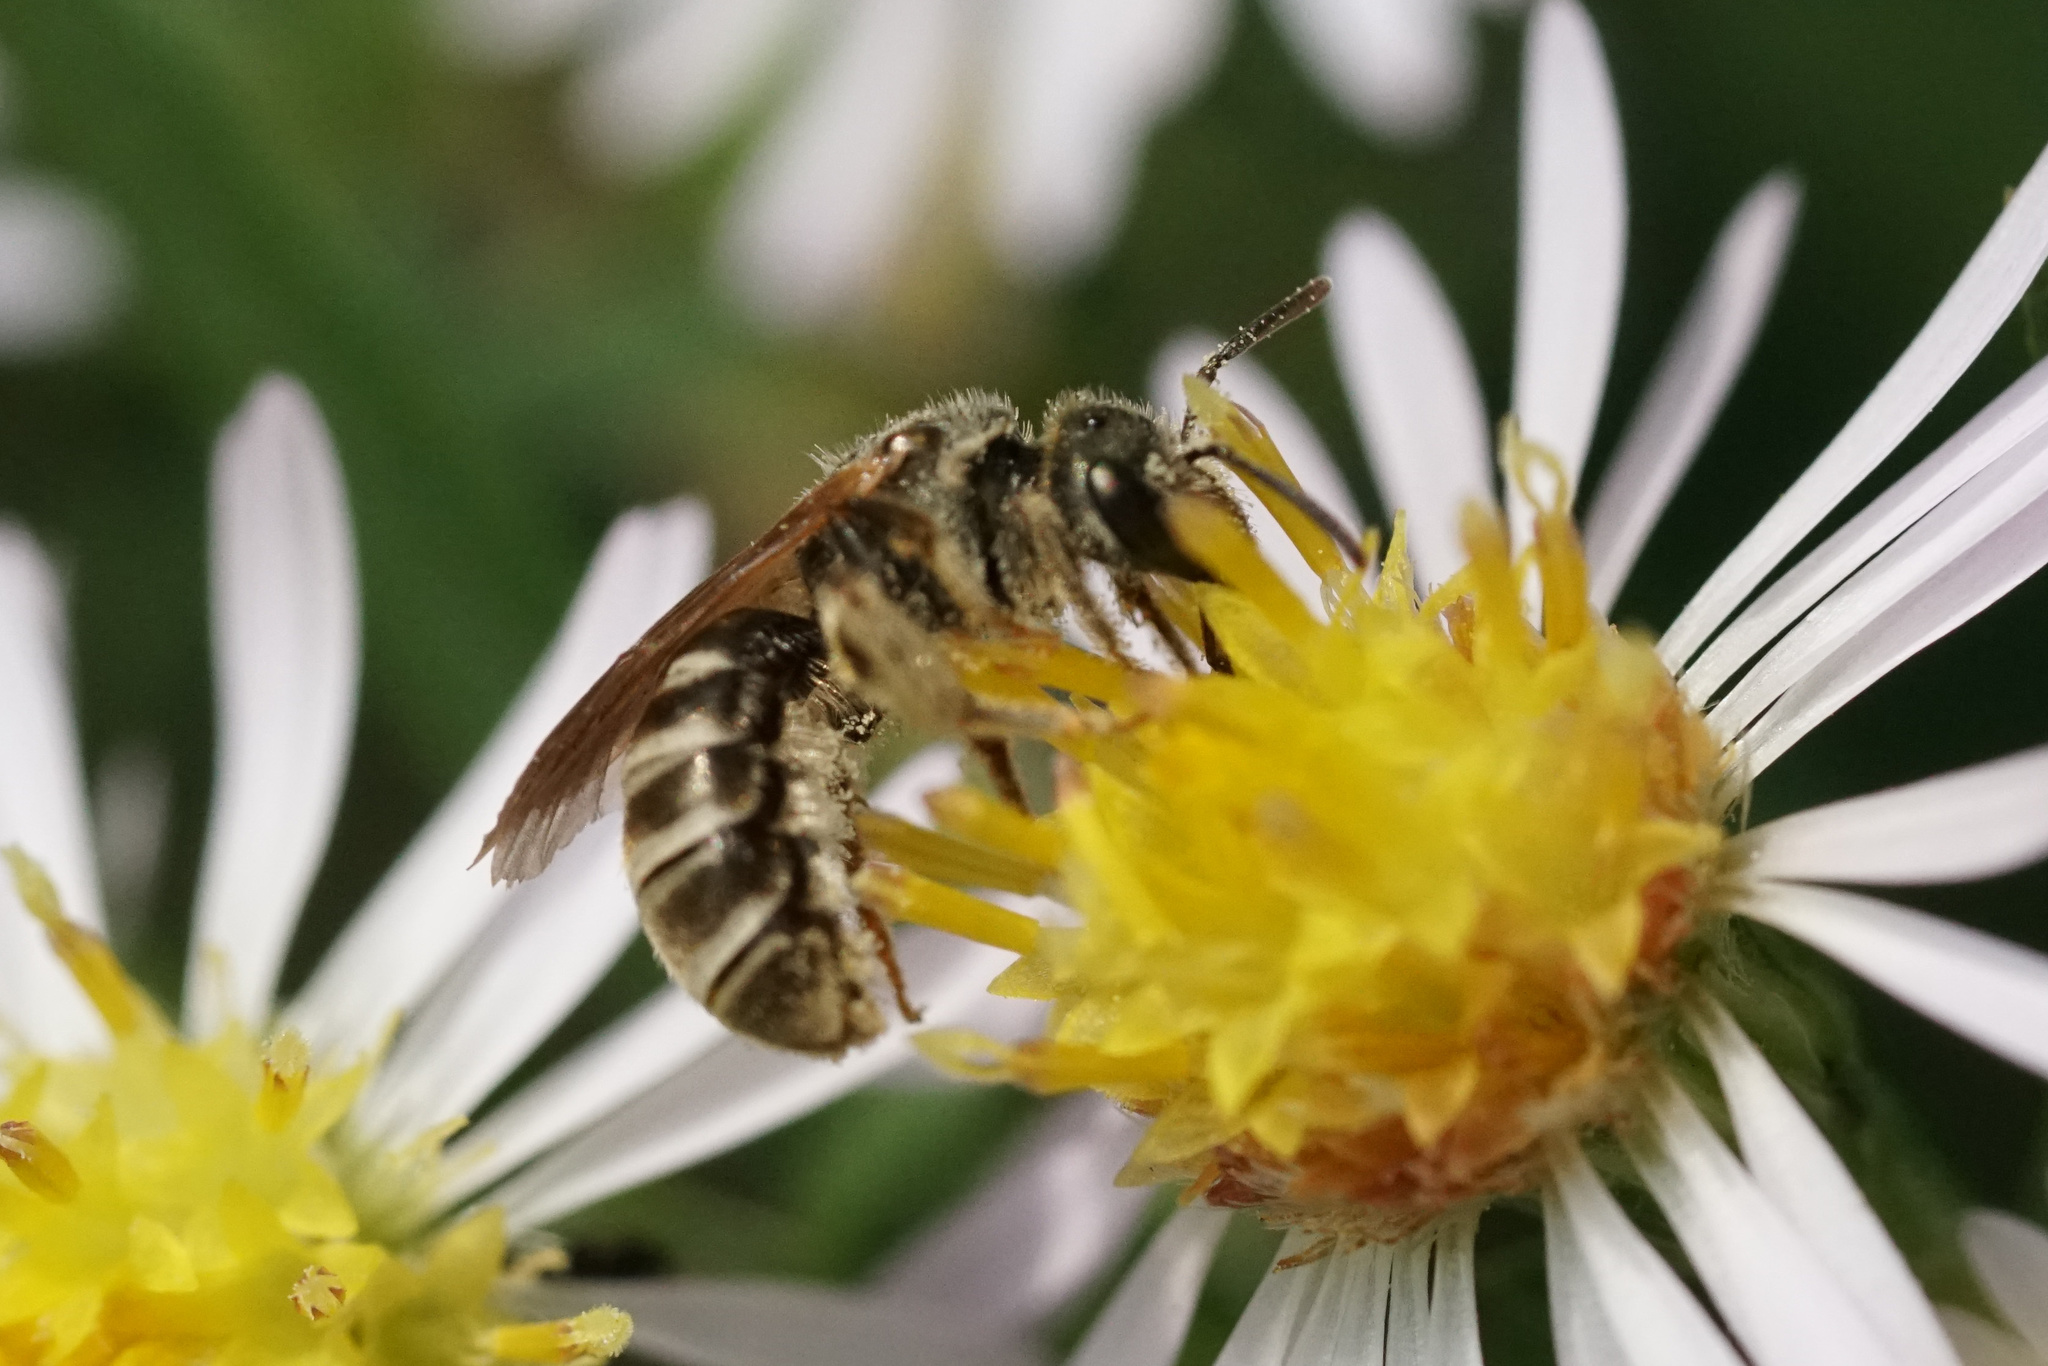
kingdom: Animalia
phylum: Arthropoda
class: Insecta
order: Hymenoptera
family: Halictidae
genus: Halictus
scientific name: Halictus confusus
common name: Southern bronze furrow bee
